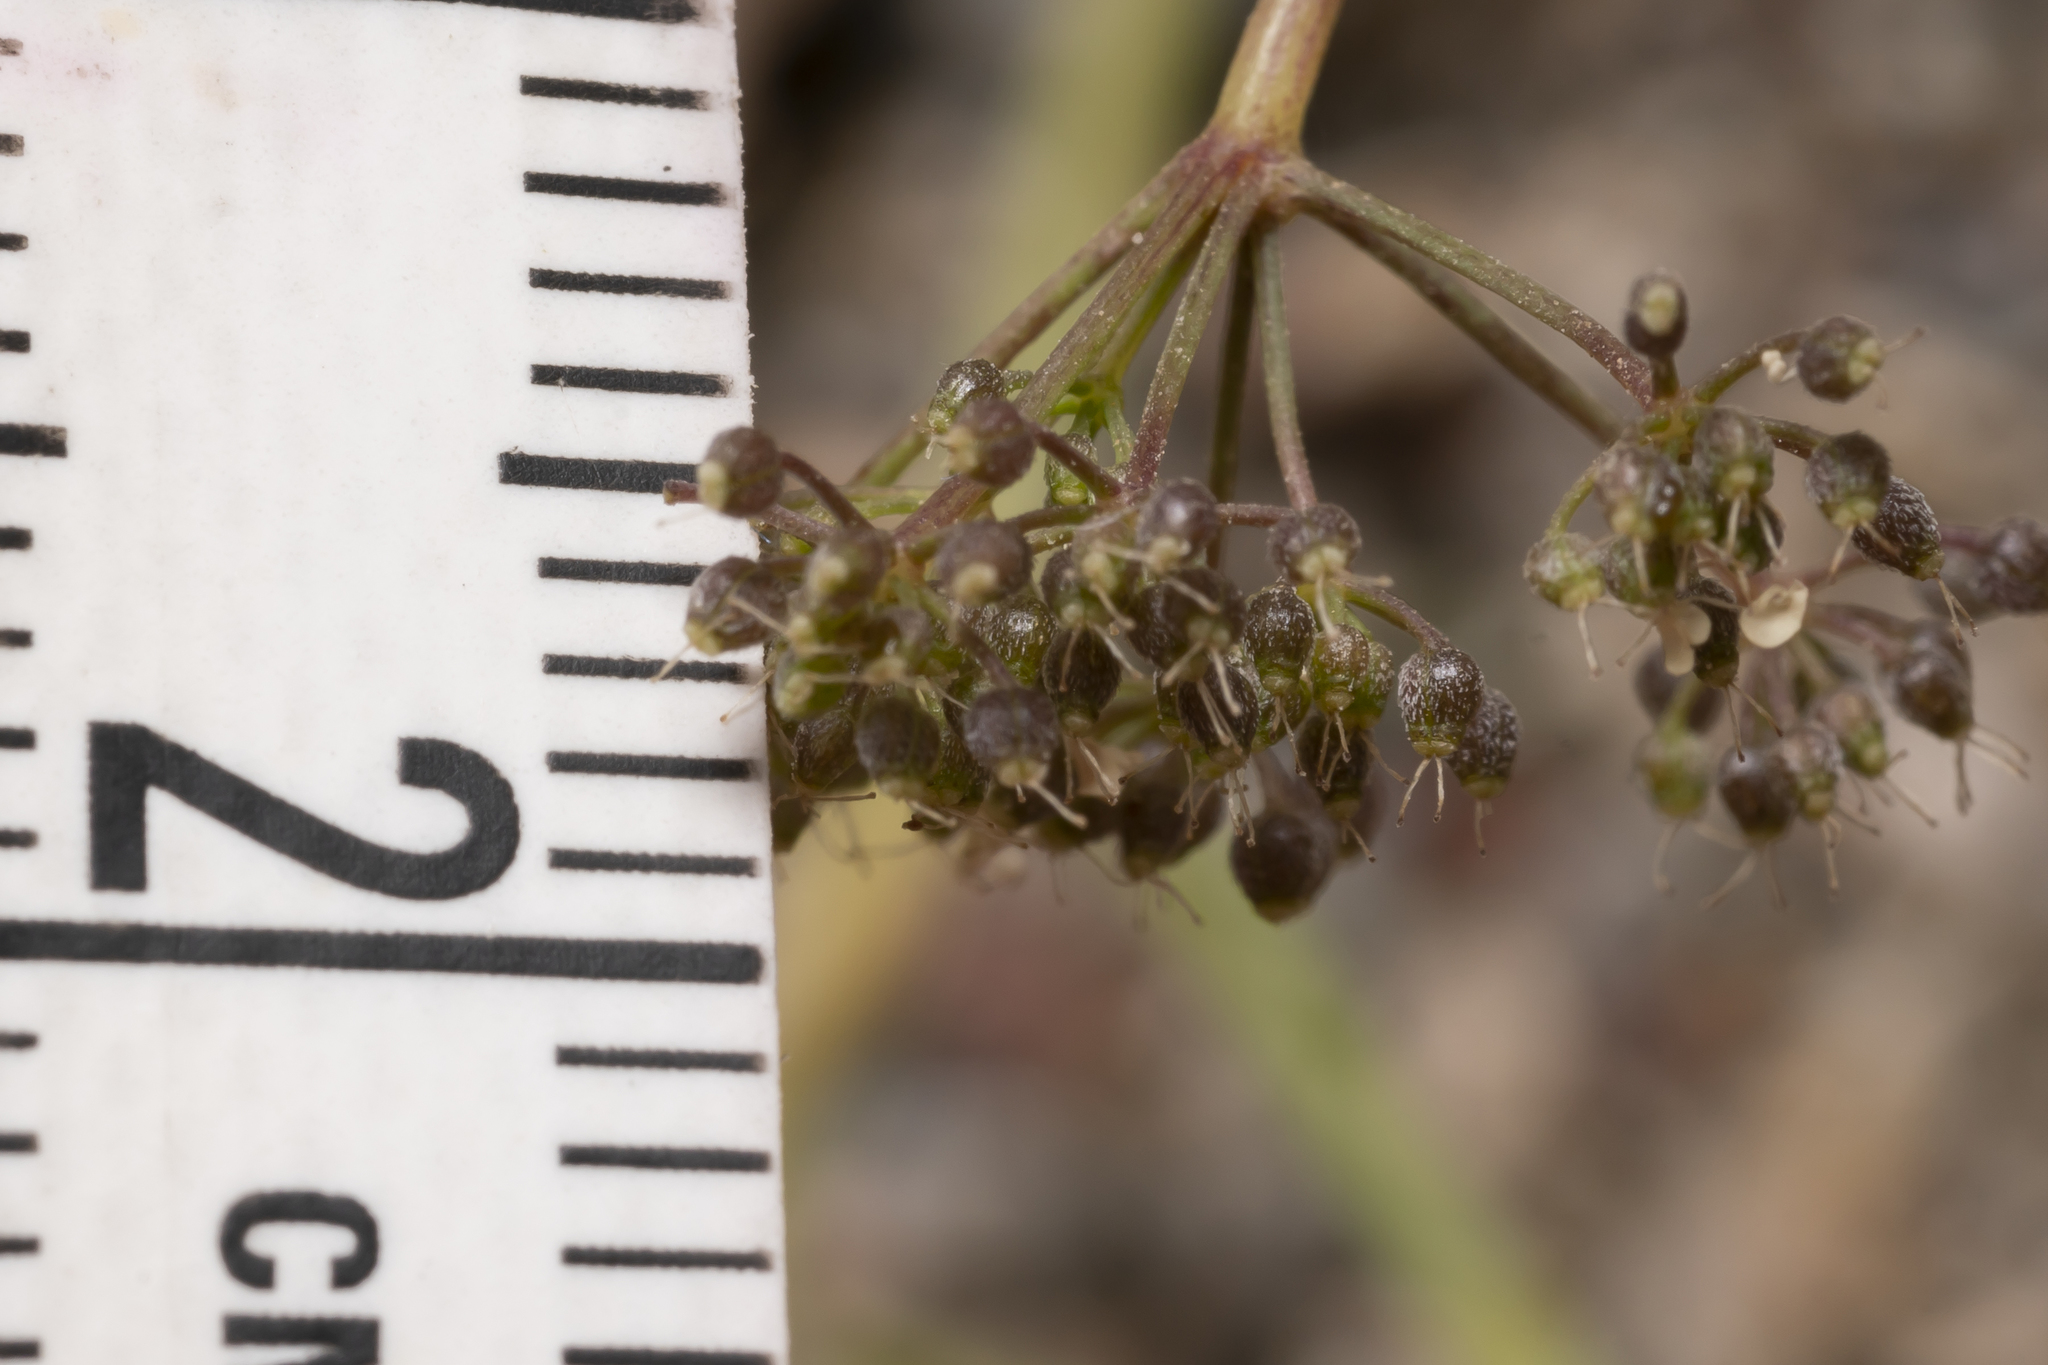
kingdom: Plantae
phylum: Tracheophyta
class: Magnoliopsida
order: Apiales
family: Apiaceae
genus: Pimpinella
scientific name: Pimpinella cretica
